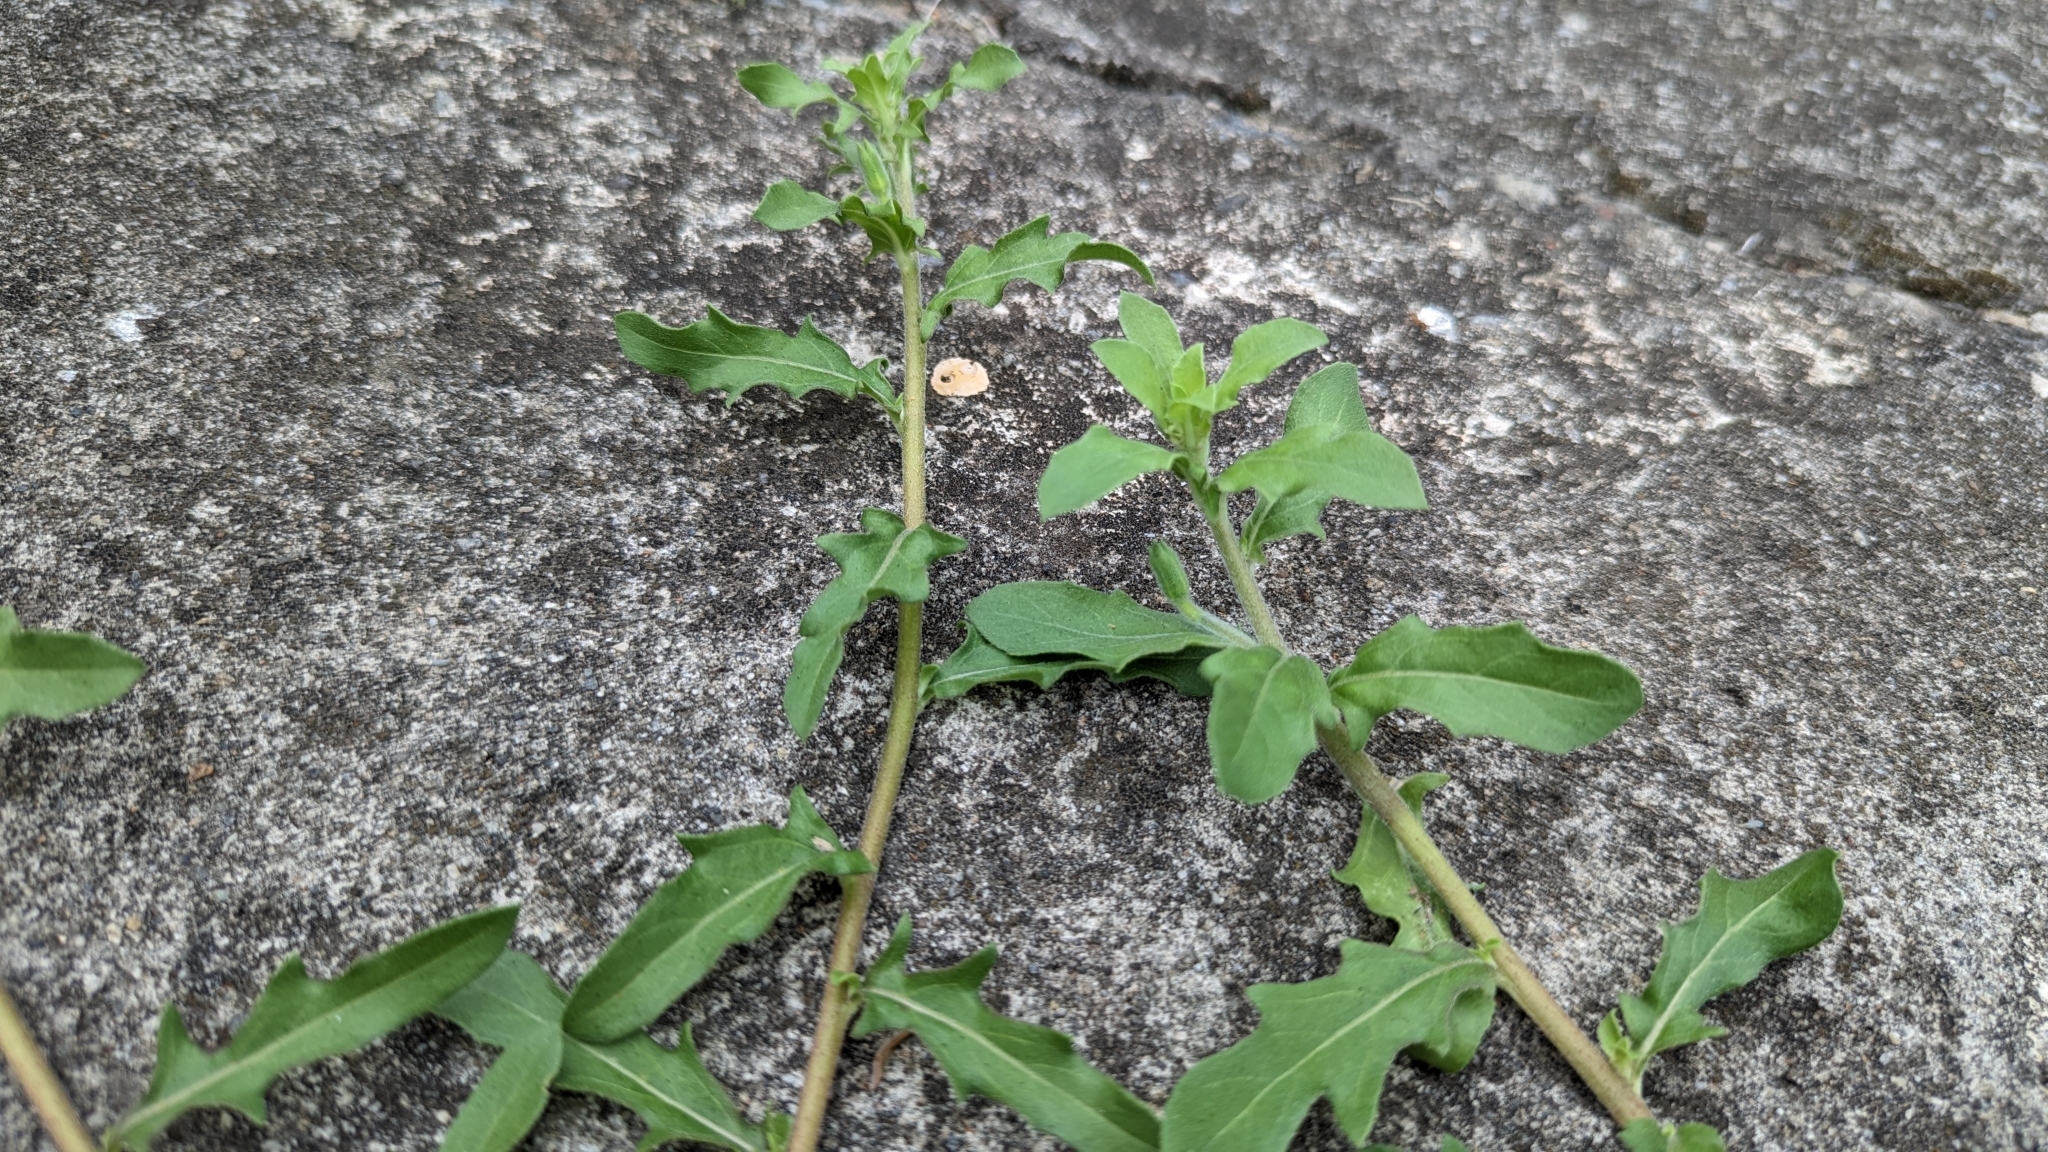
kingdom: Plantae
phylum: Tracheophyta
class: Magnoliopsida
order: Myrtales
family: Onagraceae
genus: Oenothera
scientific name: Oenothera laciniata
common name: Cut-leaved evening-primrose
